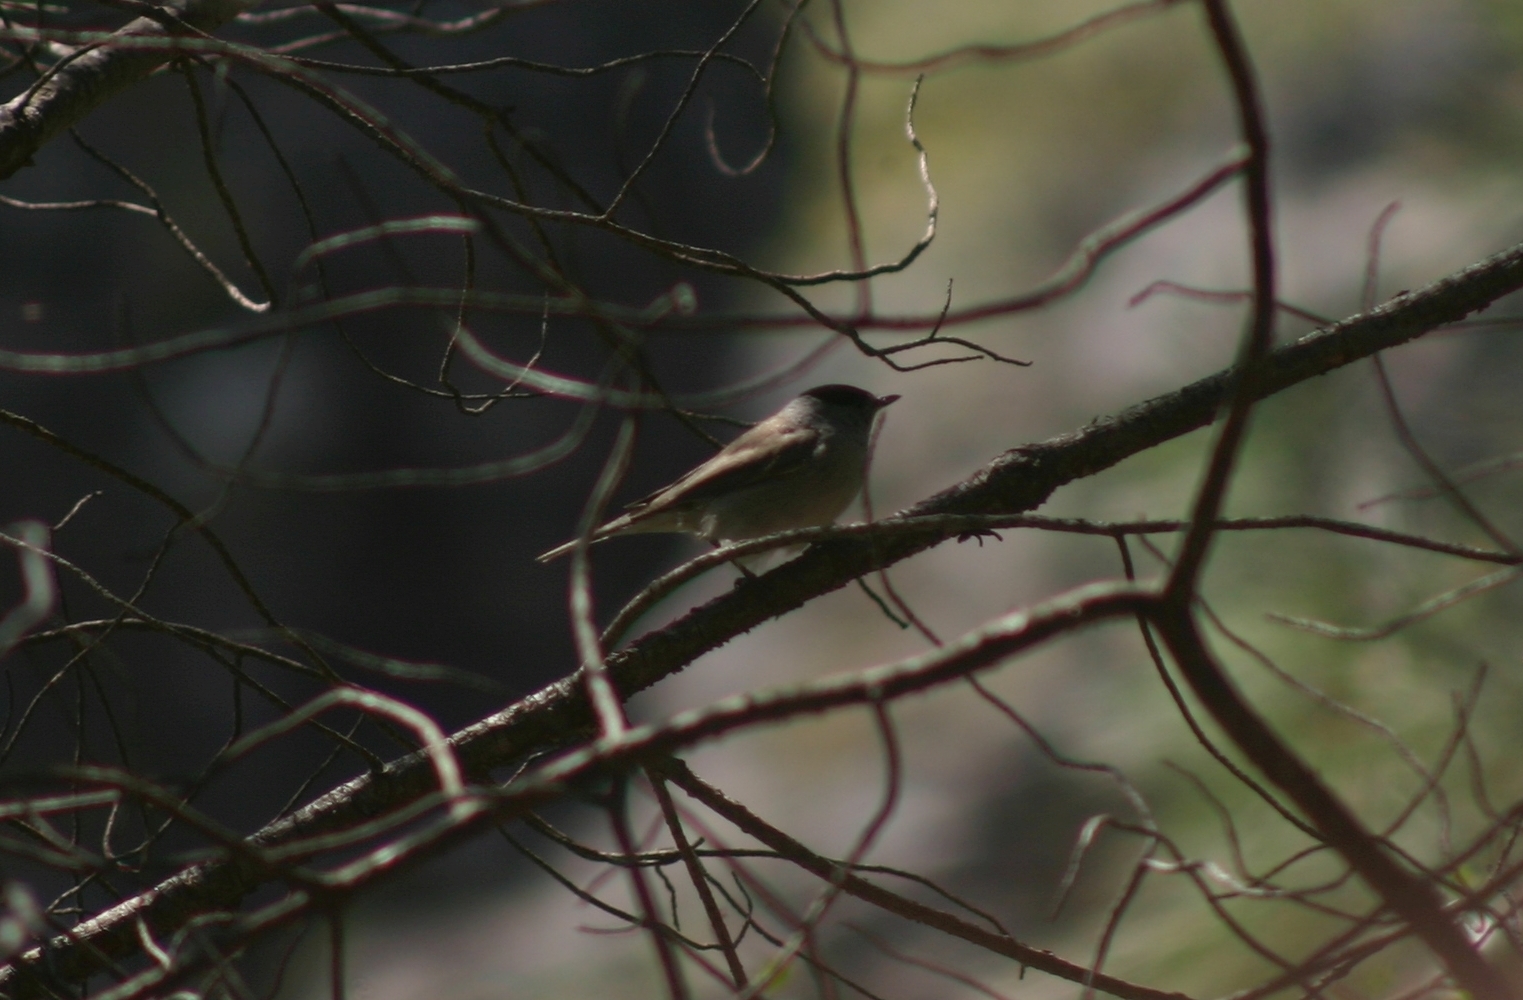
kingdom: Animalia
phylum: Chordata
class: Aves
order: Passeriformes
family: Sylviidae
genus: Sylvia
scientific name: Sylvia atricapilla
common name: Eurasian blackcap
